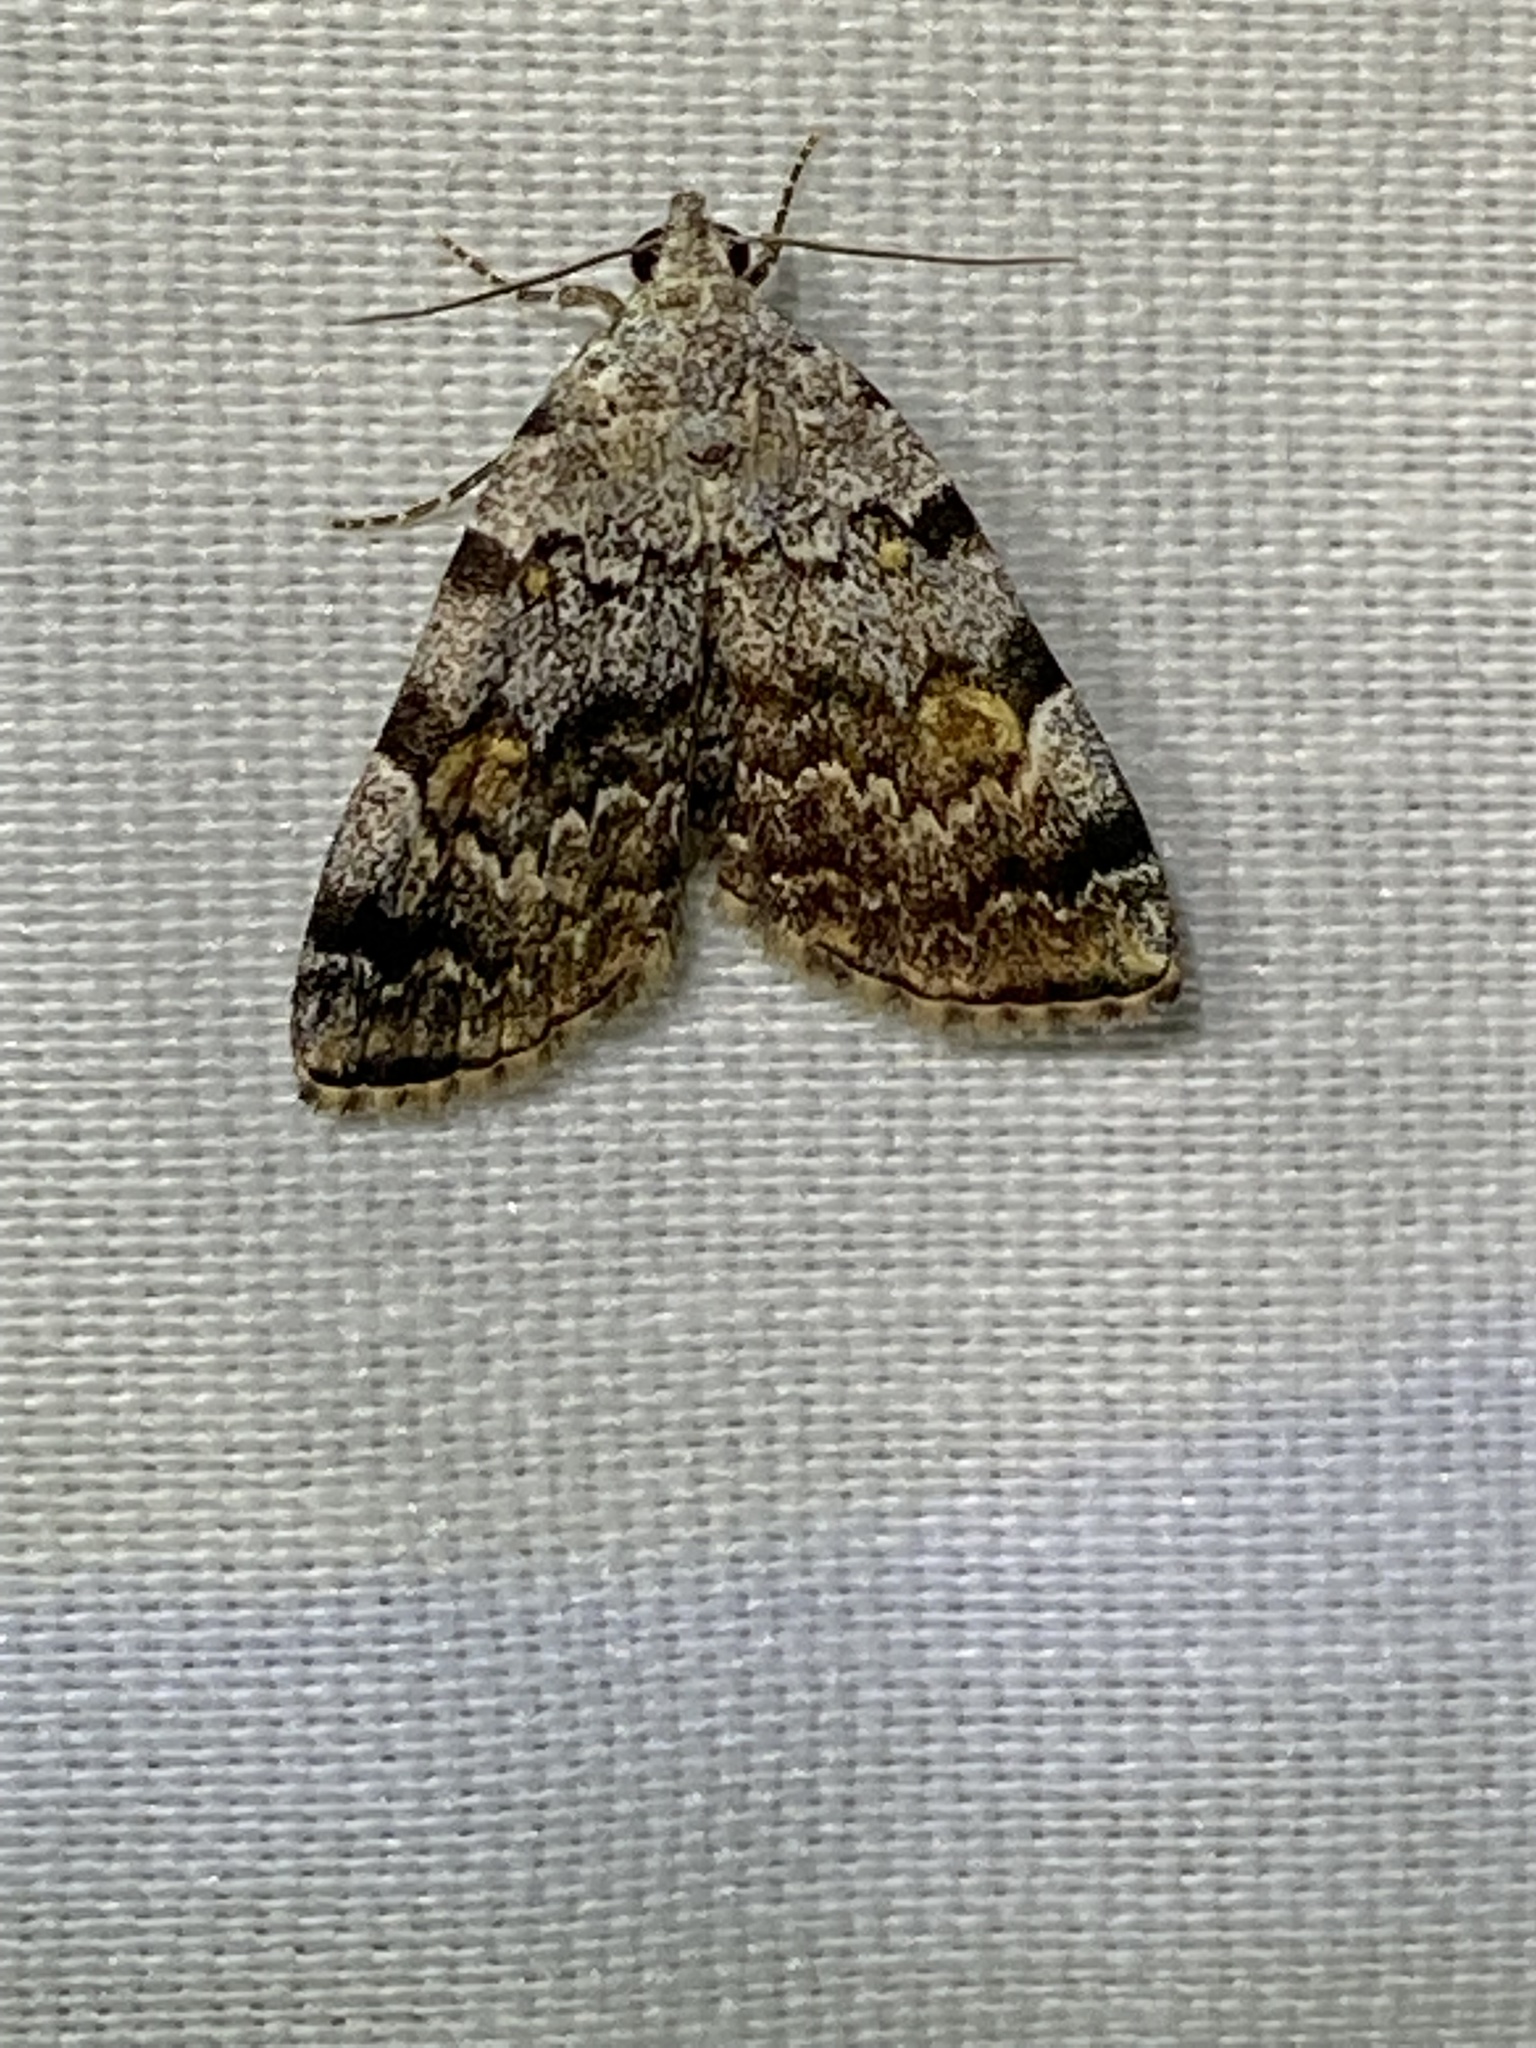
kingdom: Animalia
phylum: Arthropoda
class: Insecta
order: Lepidoptera
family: Erebidae
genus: Idia
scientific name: Idia americalis
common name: American idia moth
